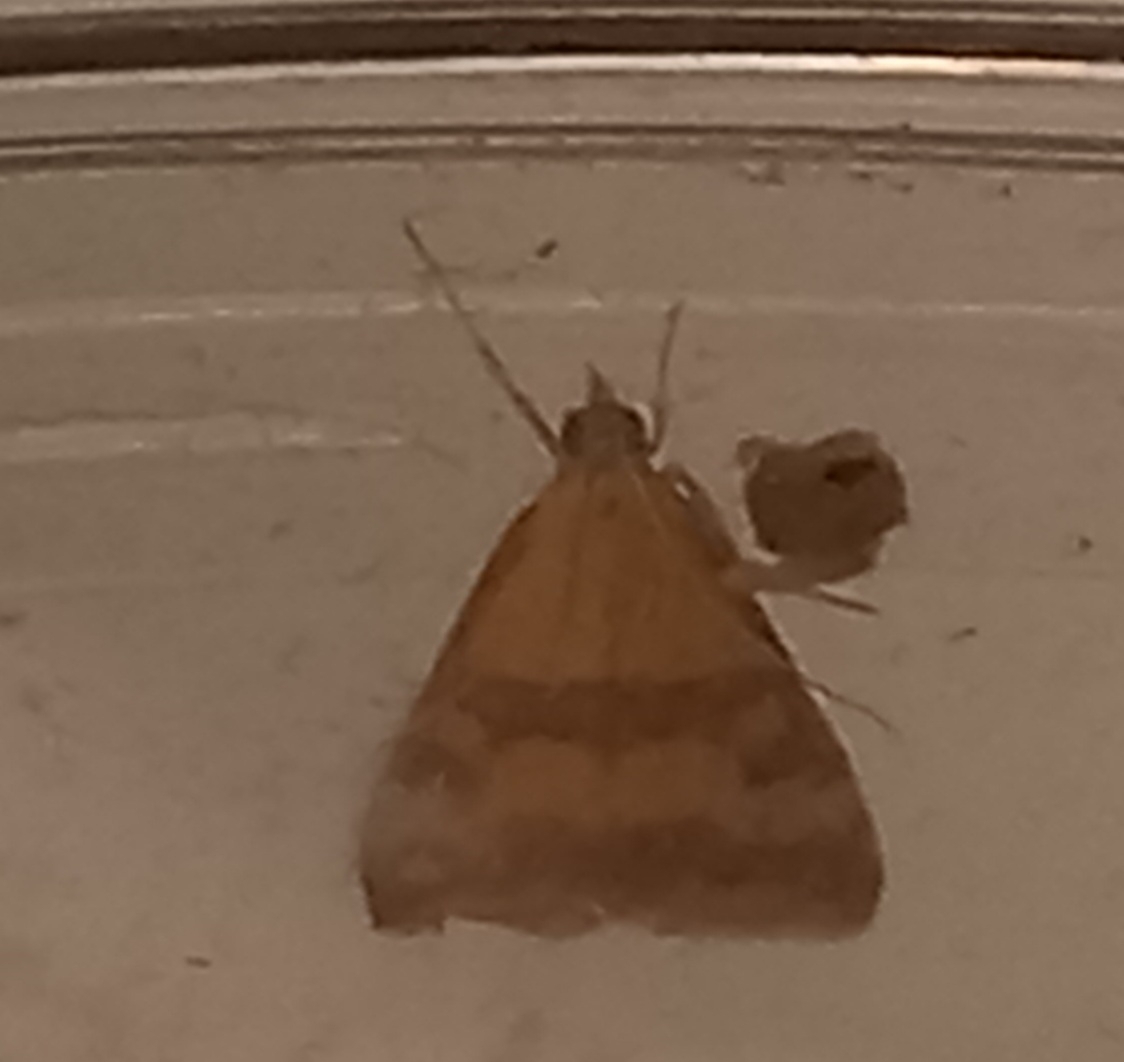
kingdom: Animalia
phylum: Arthropoda
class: Insecta
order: Lepidoptera
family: Crambidae
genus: Pyrausta
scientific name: Pyrausta sanguinalis
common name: Scarce crimson and gold
